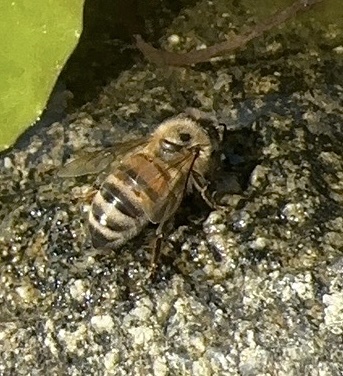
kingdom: Animalia
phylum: Arthropoda
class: Insecta
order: Hymenoptera
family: Apidae
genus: Apis
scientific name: Apis mellifera
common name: Honey bee
